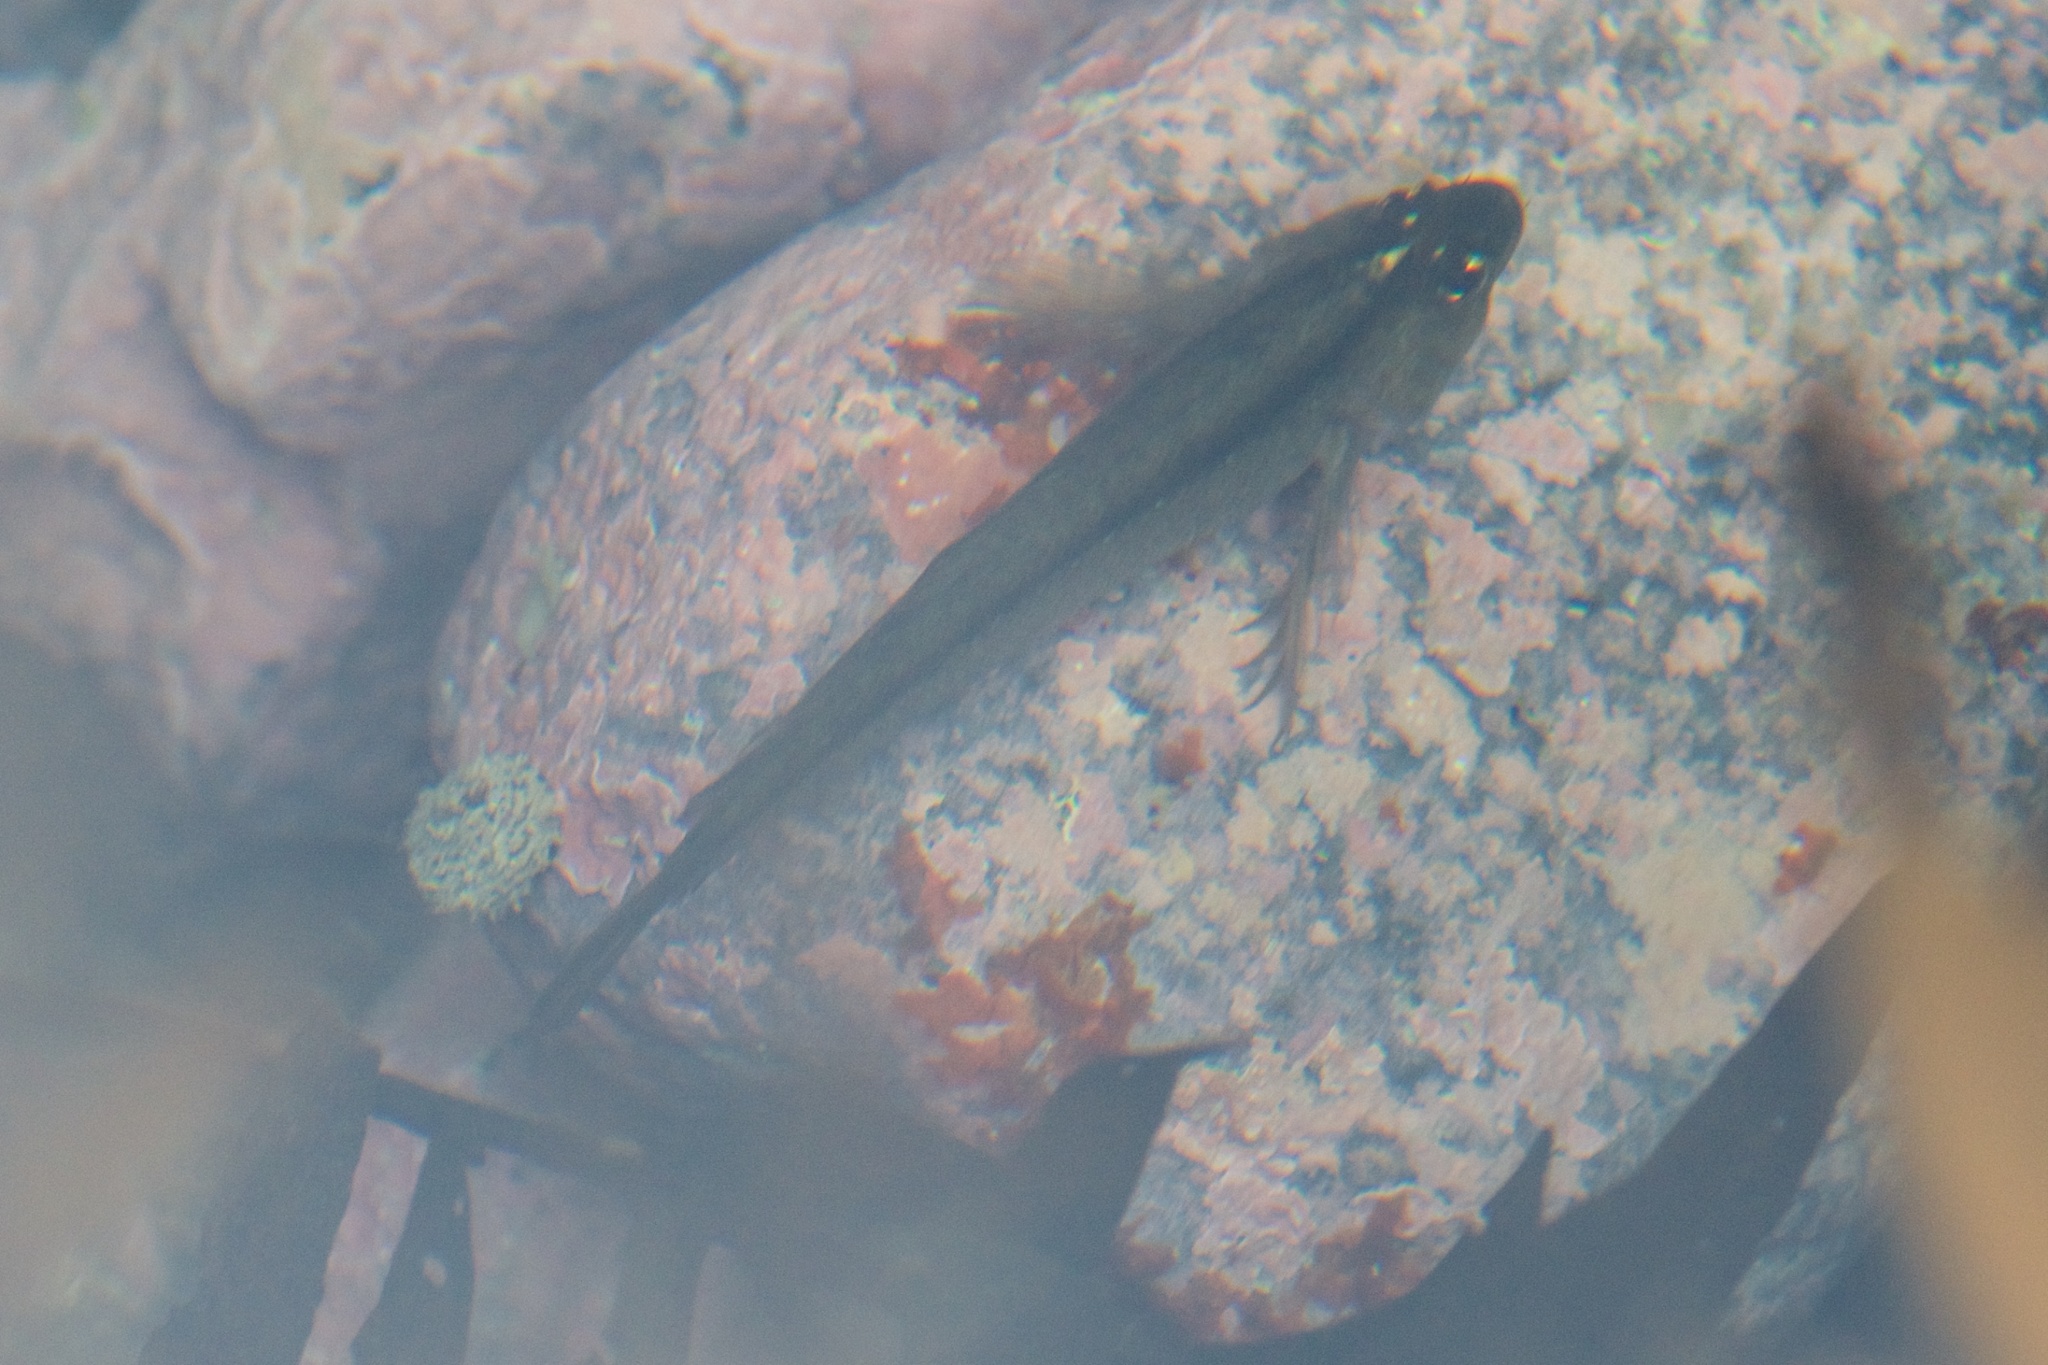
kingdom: Animalia
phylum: Chordata
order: Perciformes
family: Tripterygiidae
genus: Forsterygion
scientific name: Forsterygion lapillum
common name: Common triplefin
